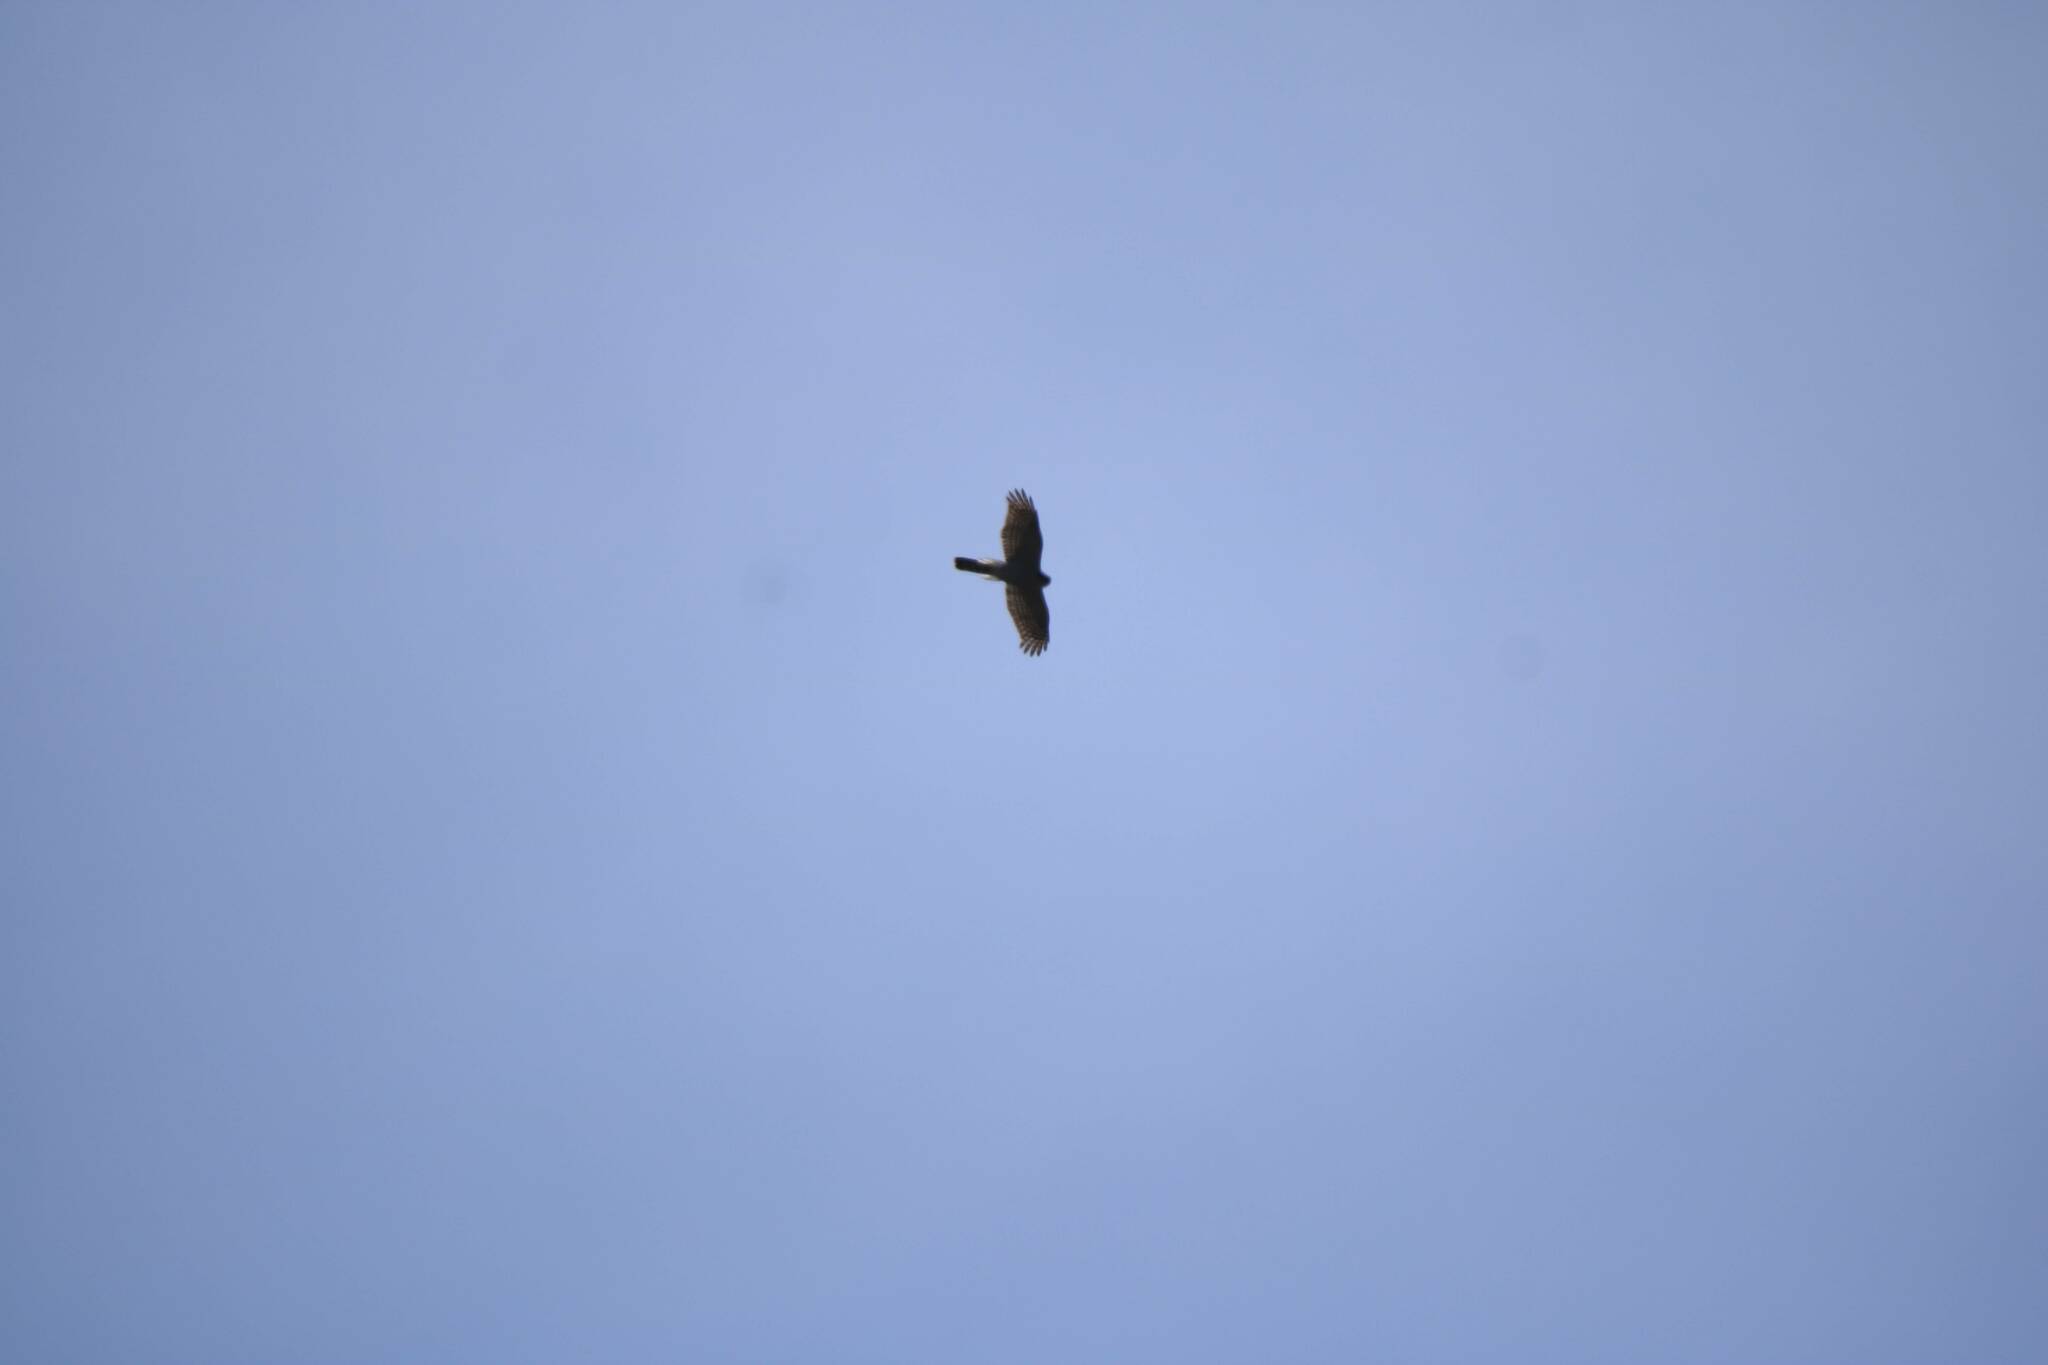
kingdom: Animalia
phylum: Chordata
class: Aves
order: Accipitriformes
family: Accipitridae
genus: Accipiter
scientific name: Accipiter nisus
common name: Eurasian sparrowhawk
